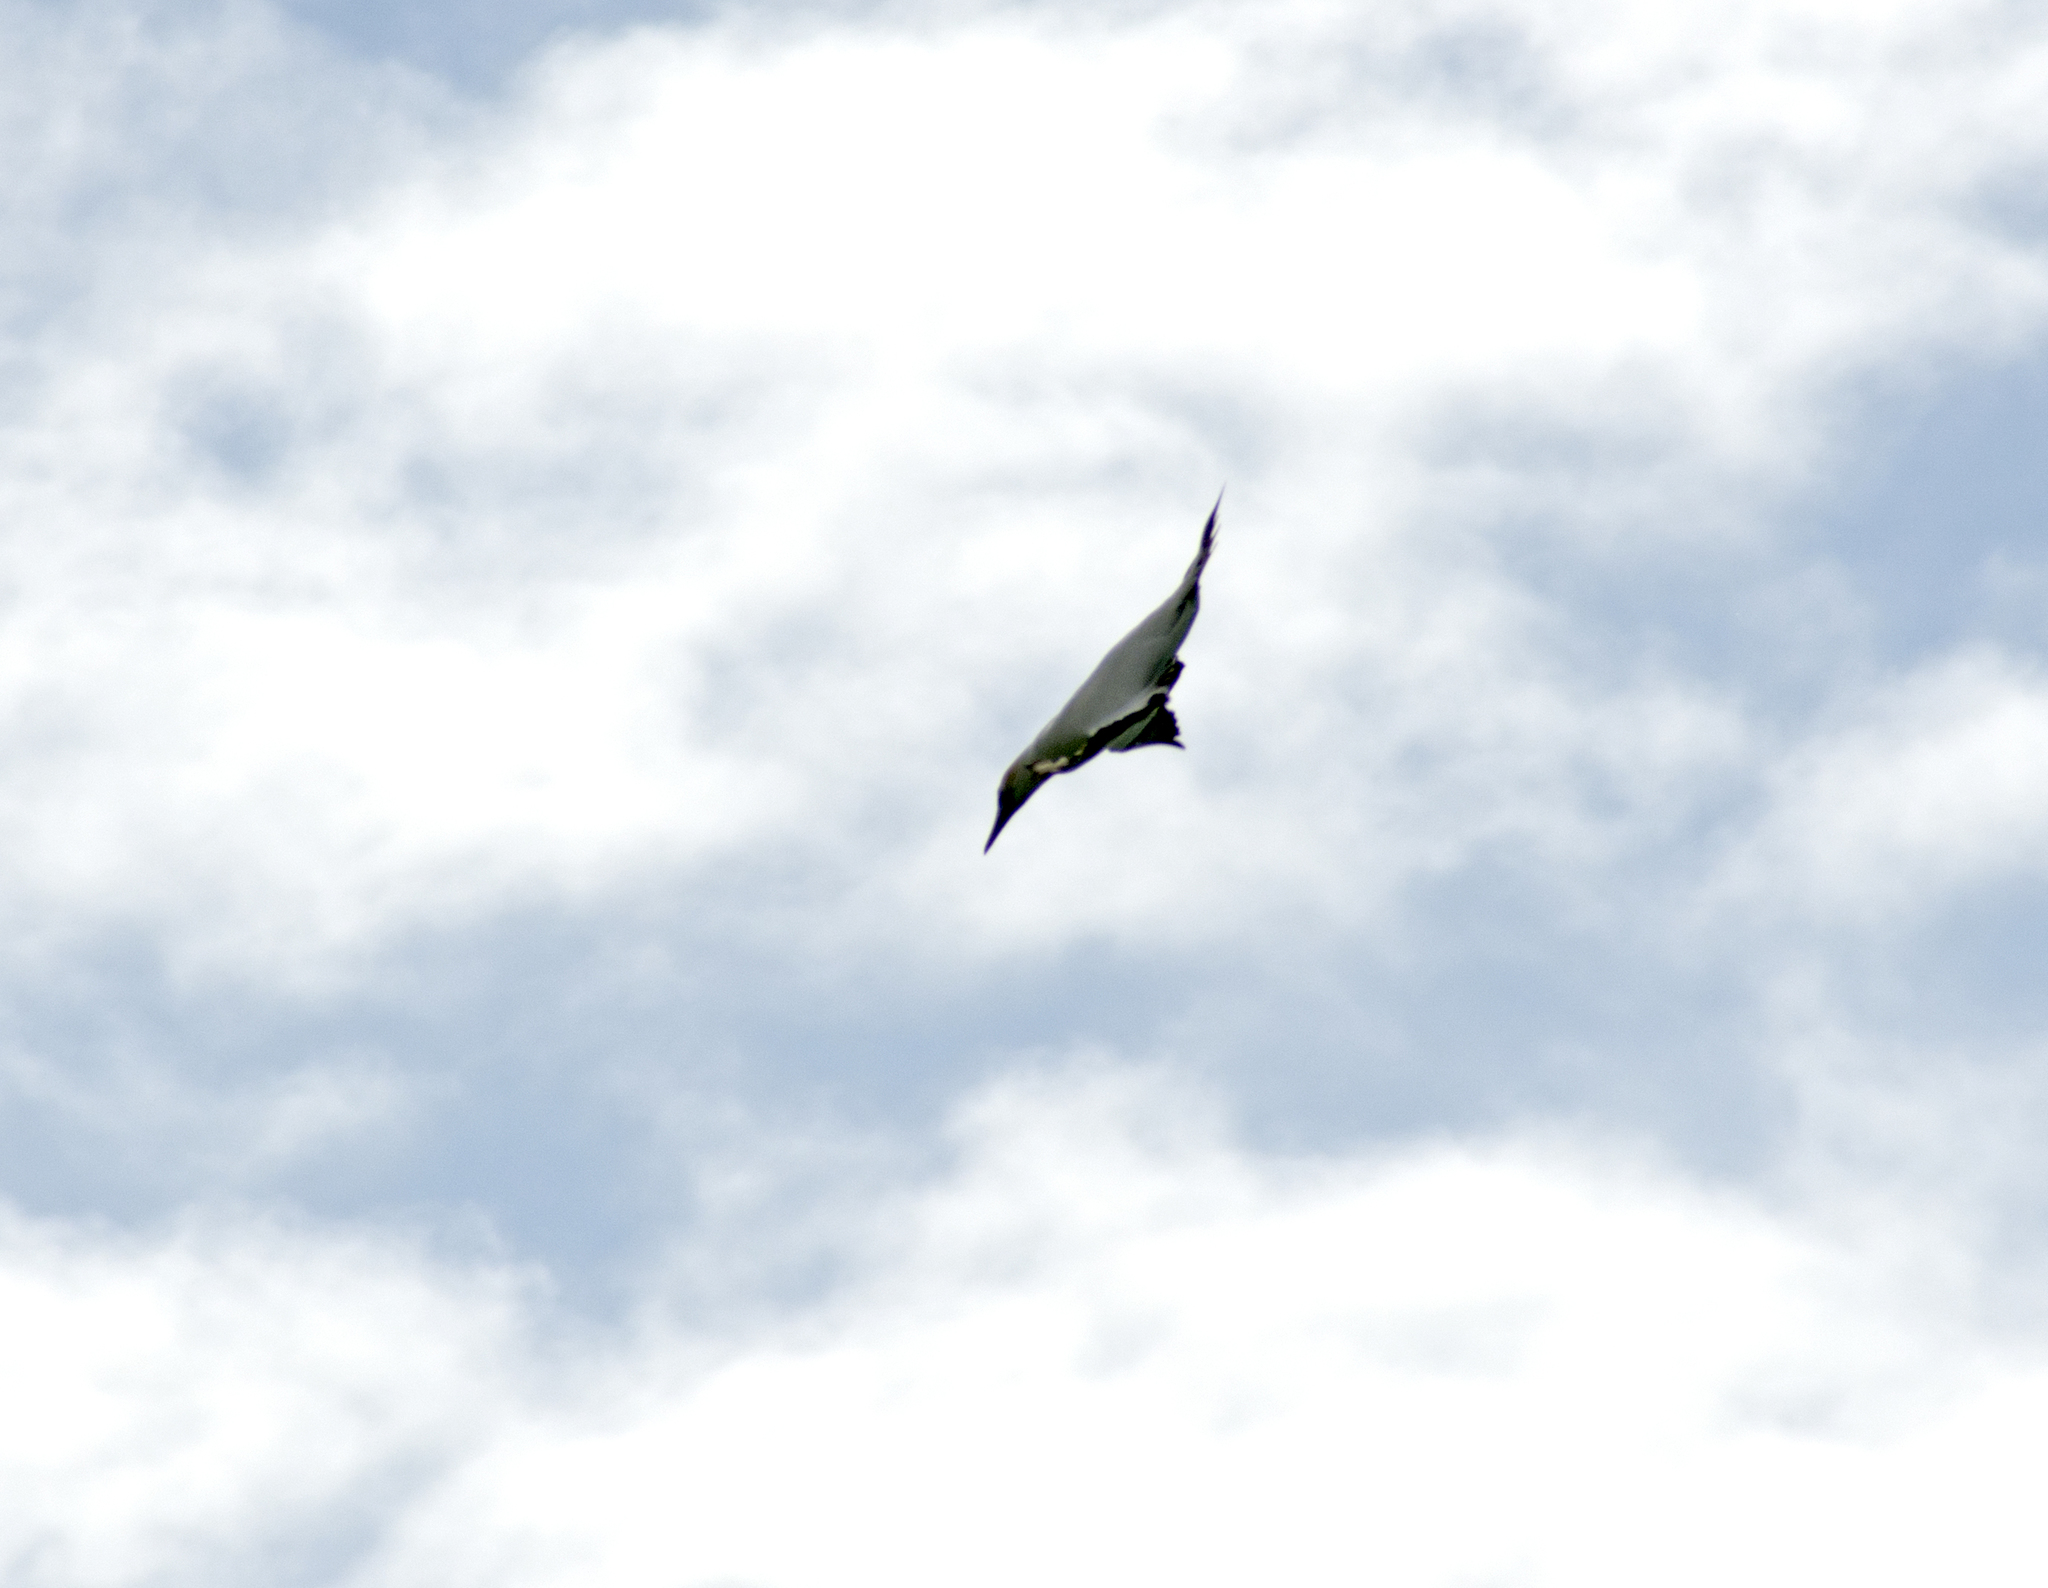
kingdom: Animalia
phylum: Chordata
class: Aves
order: Suliformes
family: Sulidae
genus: Morus
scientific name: Morus serrator
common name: Australasian gannet
